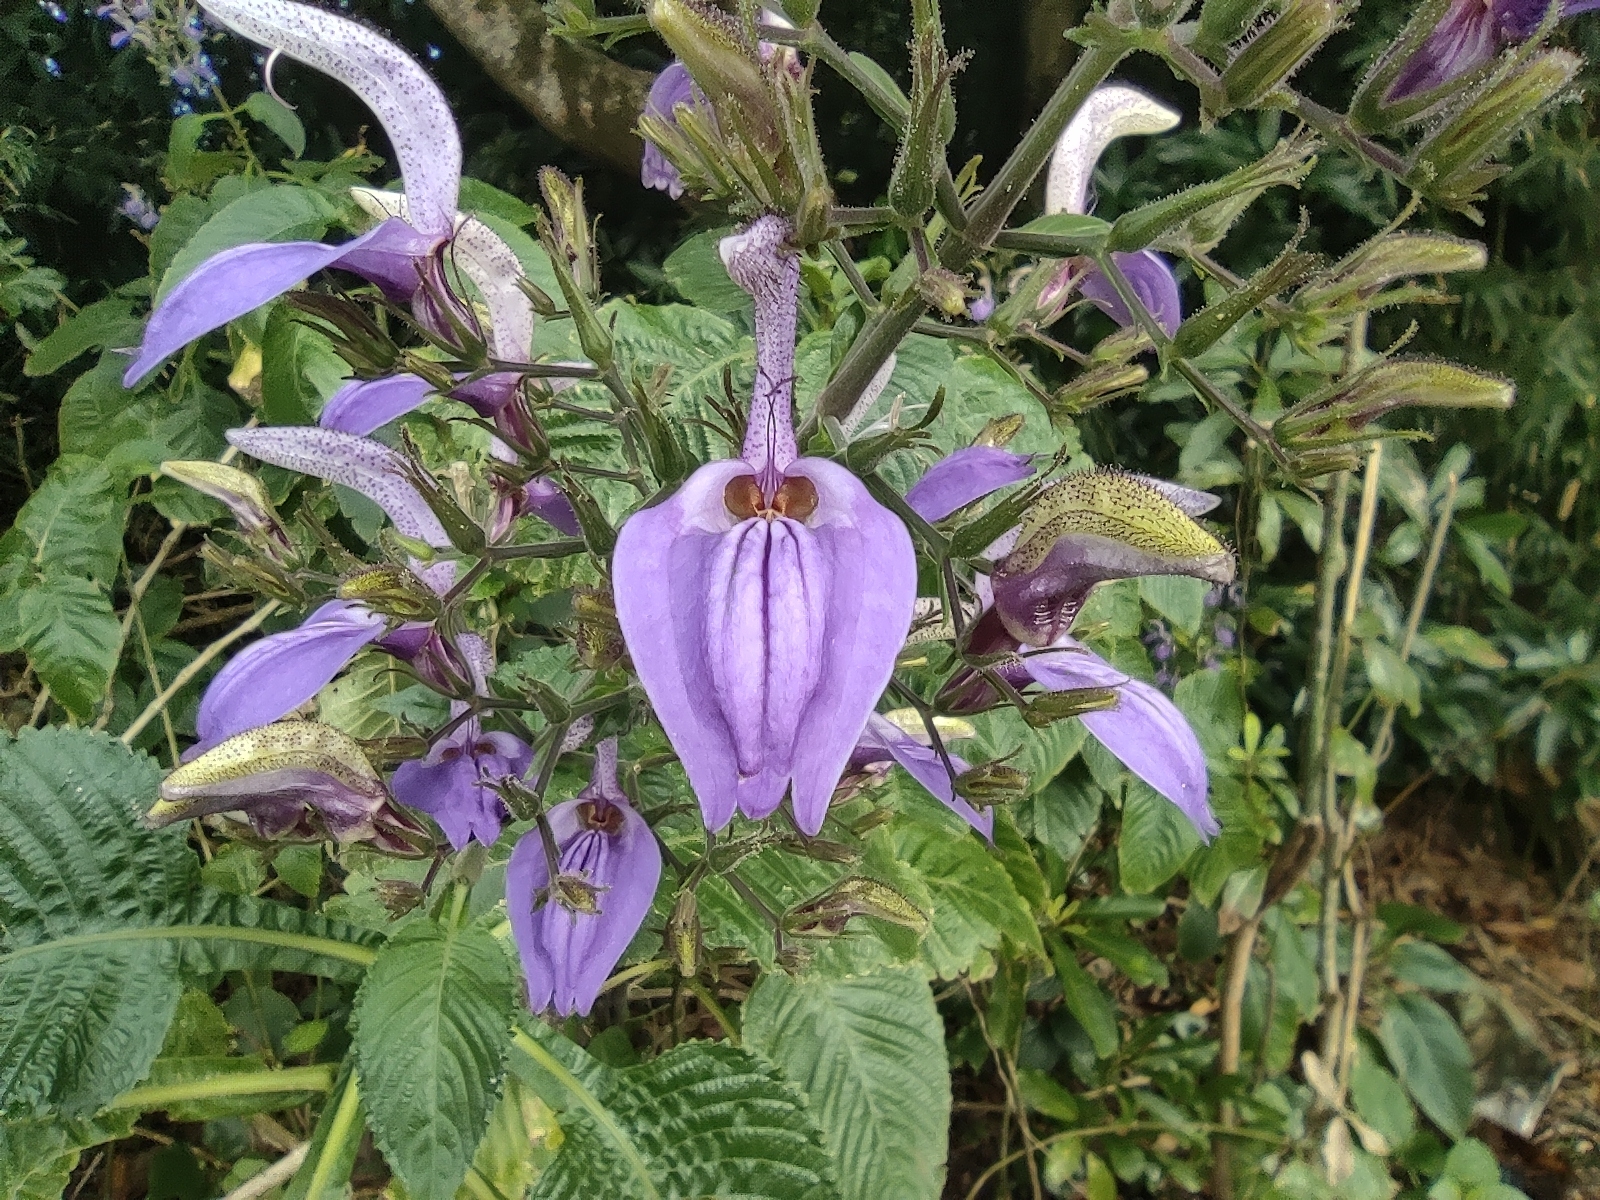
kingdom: Plantae
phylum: Tracheophyta
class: Magnoliopsida
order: Lamiales
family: Acanthaceae
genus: Brillantaisia
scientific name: Brillantaisia owariensis
